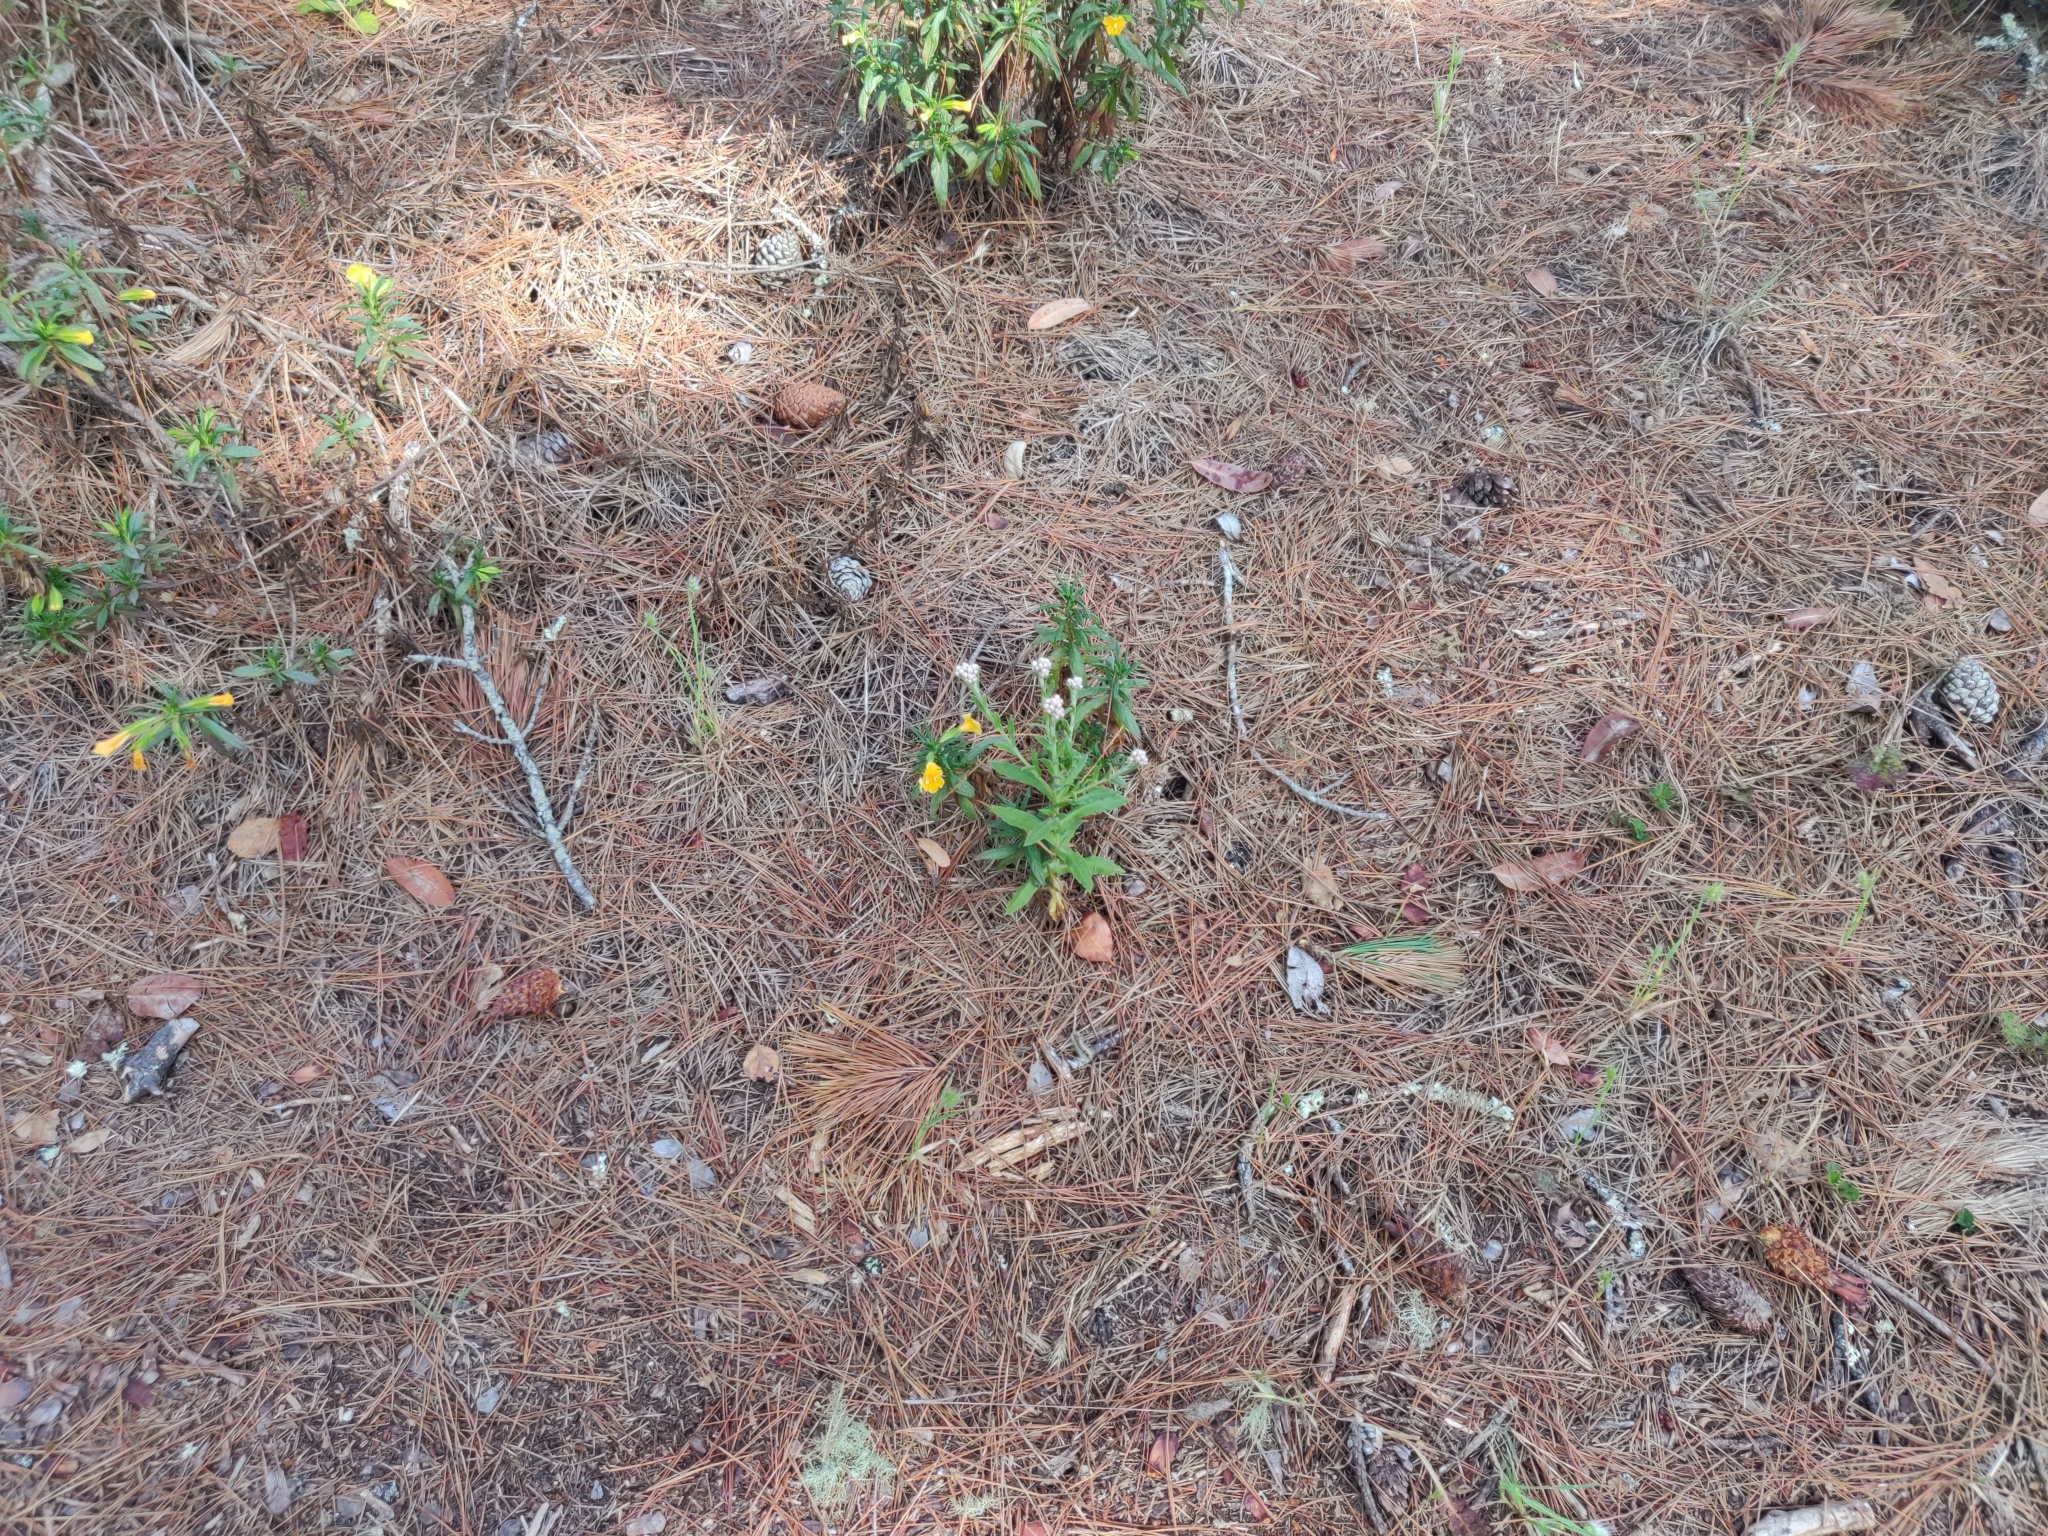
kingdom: Plantae
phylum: Tracheophyta
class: Magnoliopsida
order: Asterales
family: Asteraceae
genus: Pseudognaphalium
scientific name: Pseudognaphalium californicum
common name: California rabbit-tobacco
